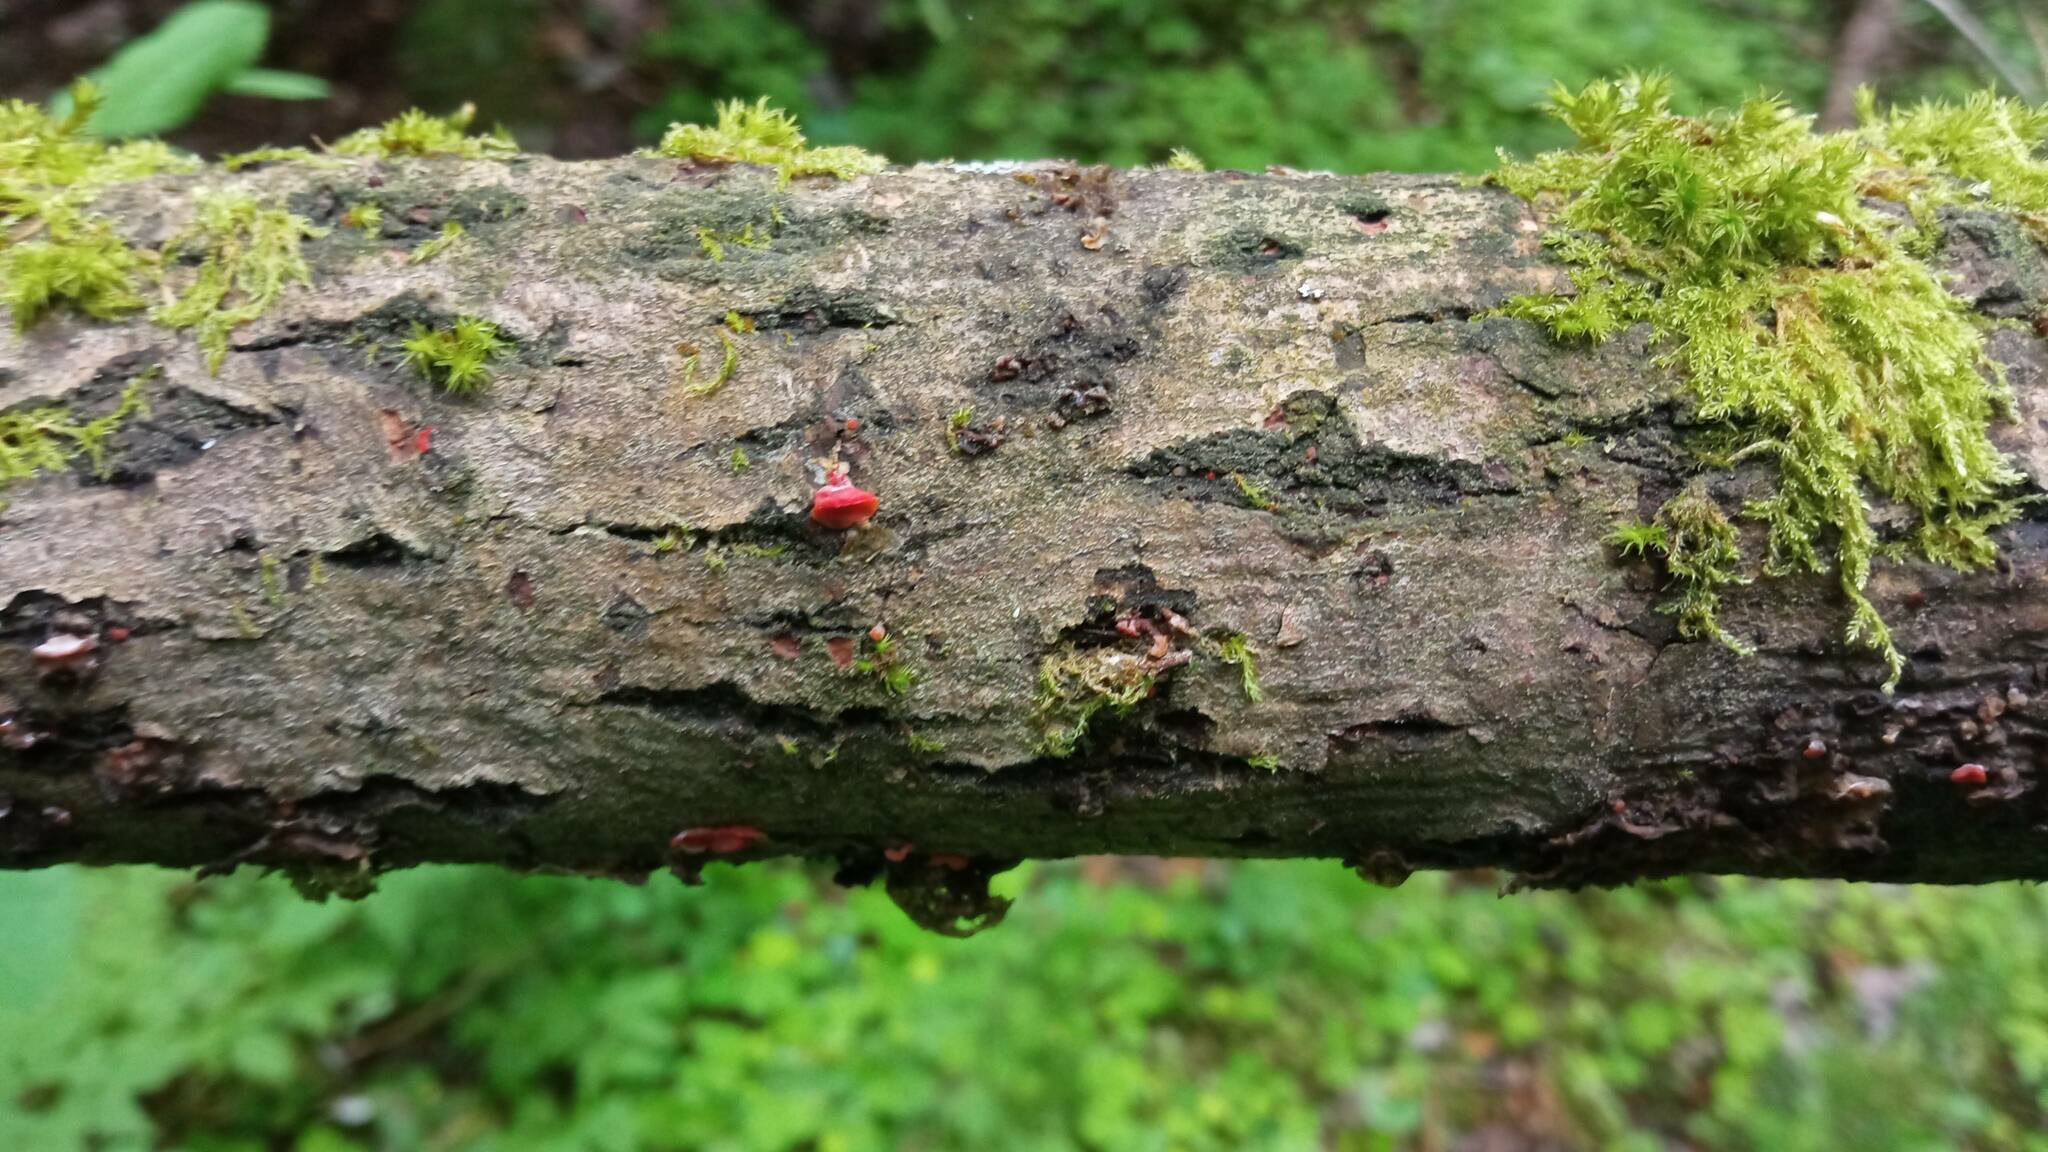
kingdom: Fungi
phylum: Basidiomycota
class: Agaricomycetes
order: Corticiales
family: Vuilleminiaceae
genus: Cytidia
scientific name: Cytidia salicina
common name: Scarlet splash
